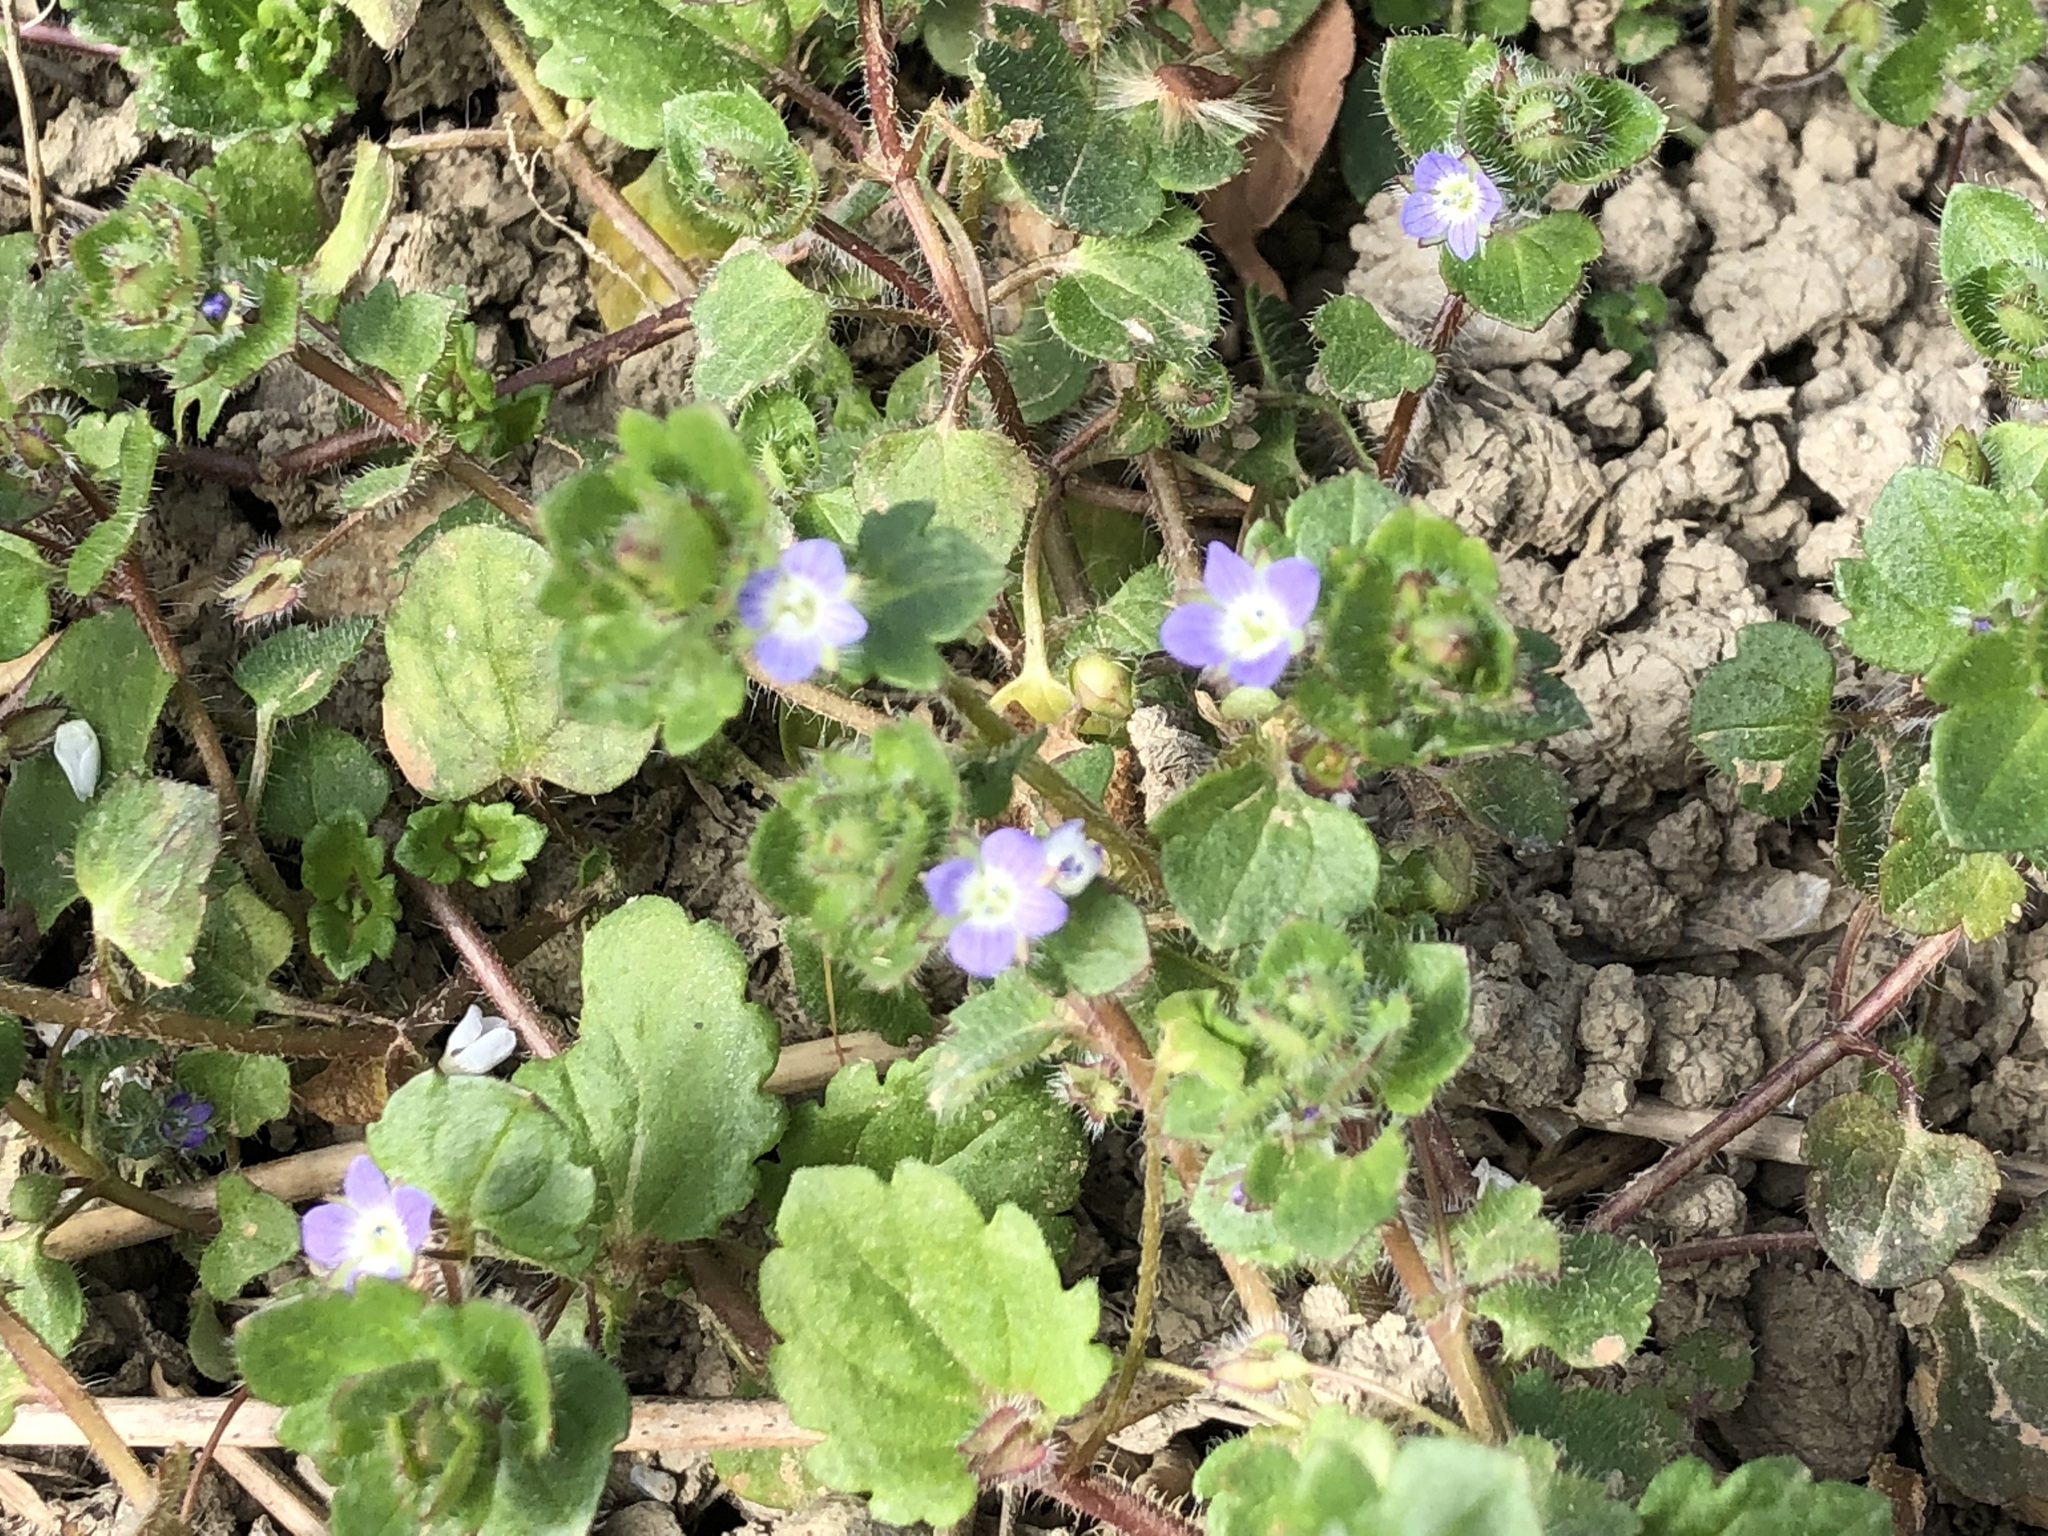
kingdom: Plantae
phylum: Tracheophyta
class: Magnoliopsida
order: Lamiales
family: Plantaginaceae
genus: Veronica
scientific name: Veronica hederifolia
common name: Ivy-leaved speedwell
